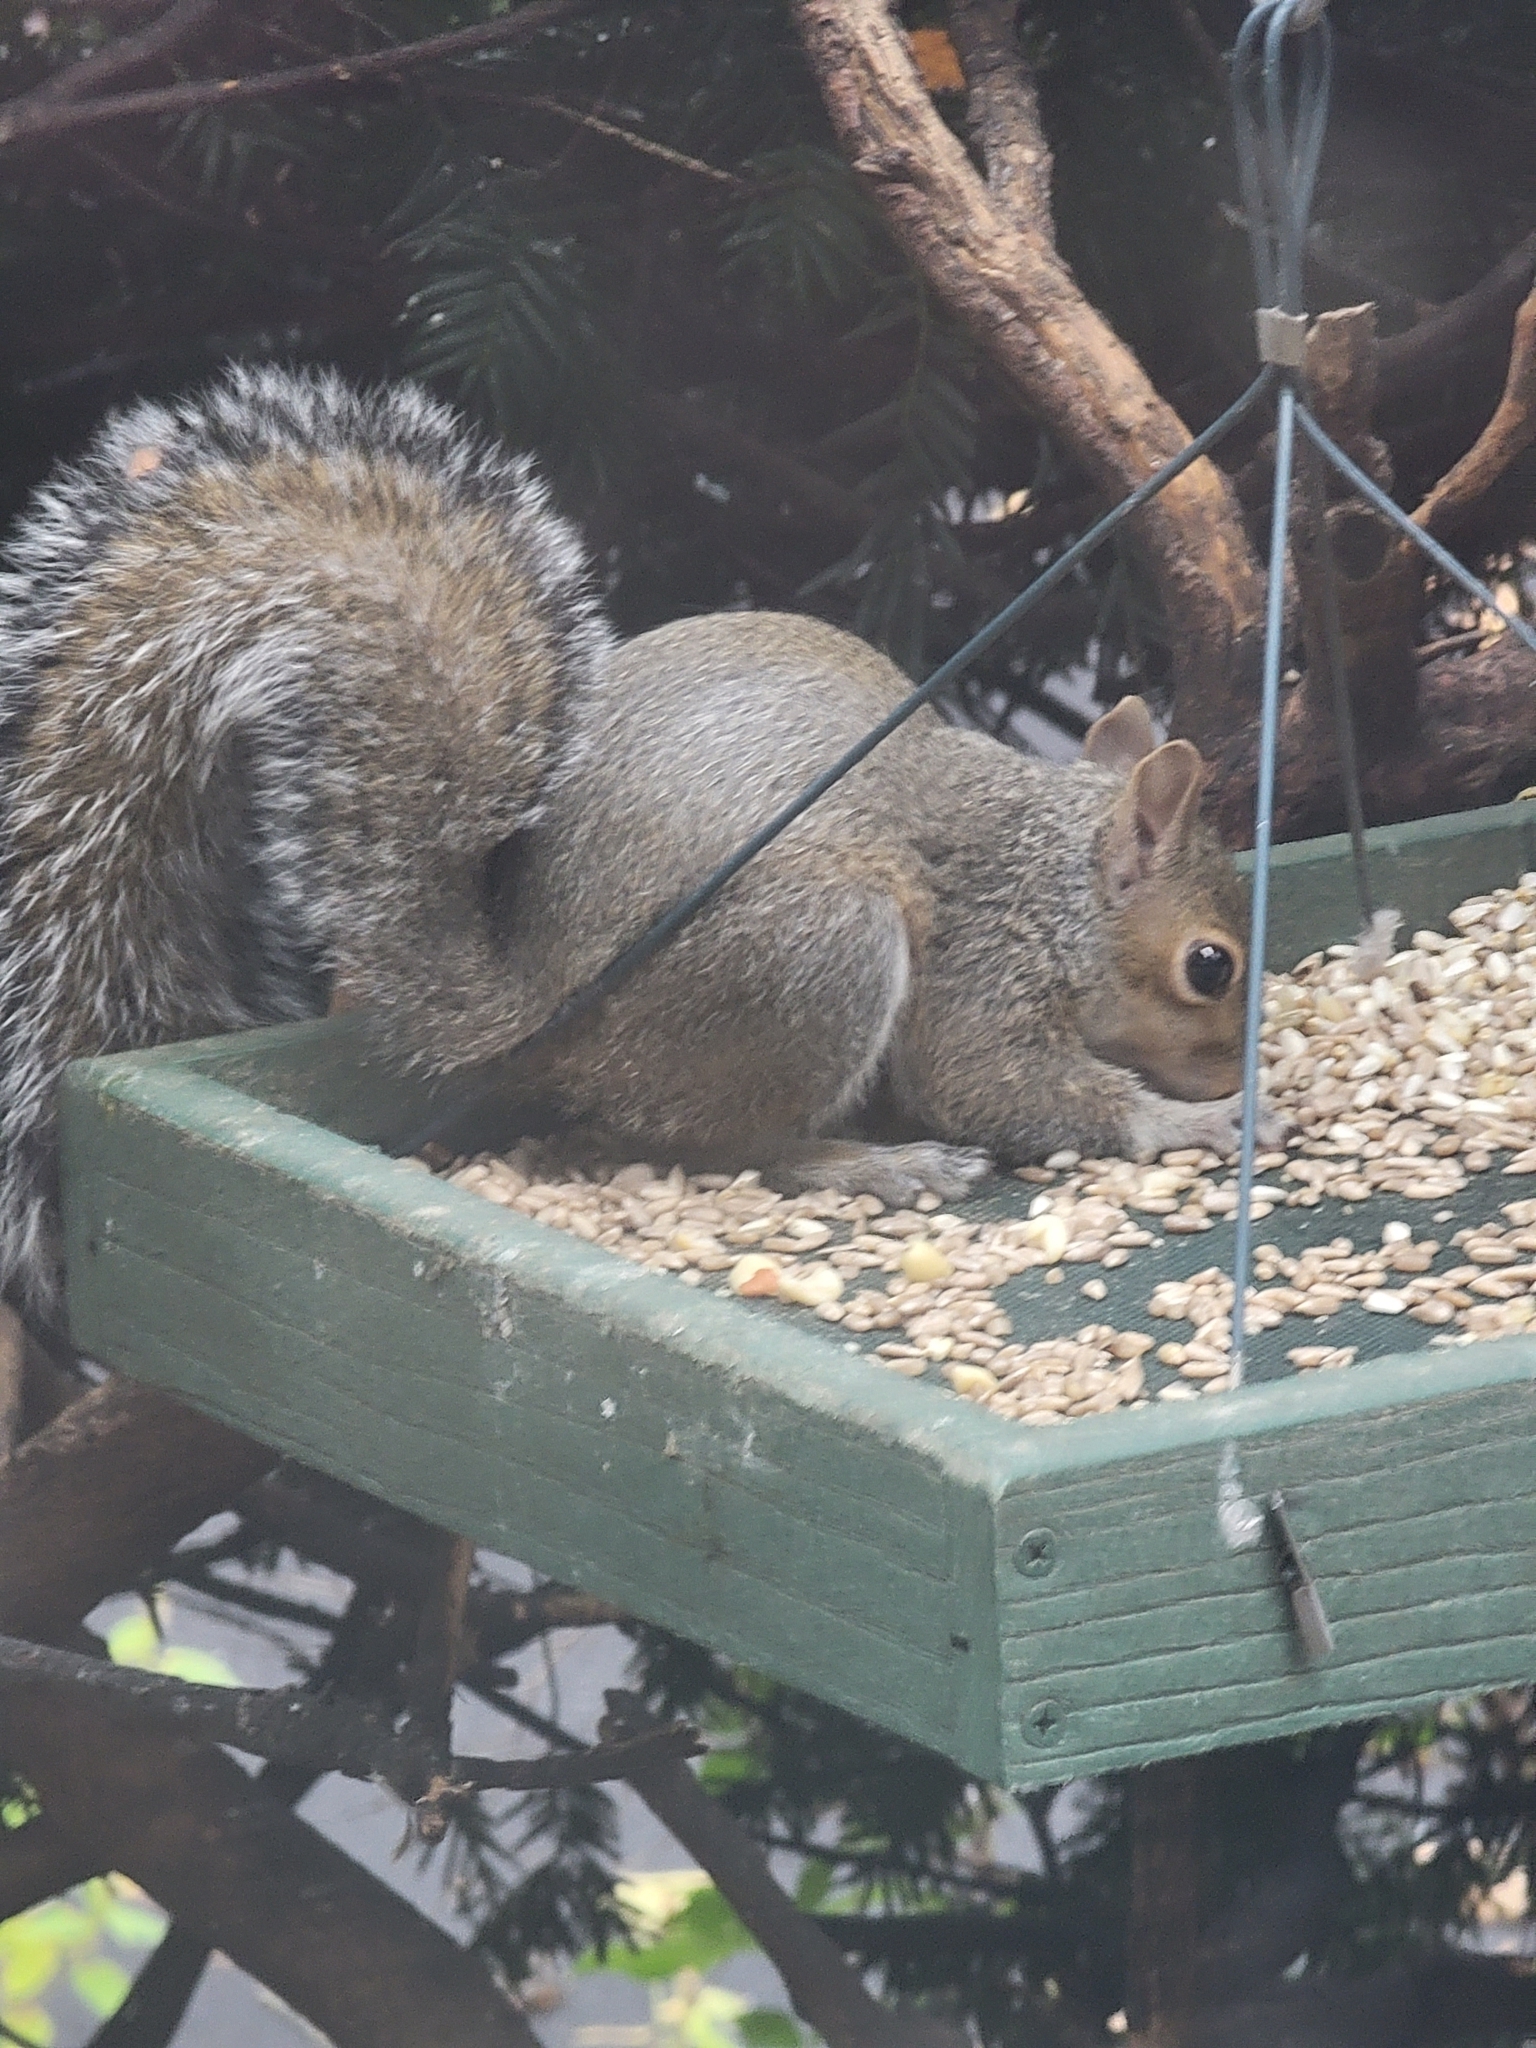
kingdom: Animalia
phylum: Chordata
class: Mammalia
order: Rodentia
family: Sciuridae
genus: Sciurus
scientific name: Sciurus carolinensis
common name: Eastern gray squirrel
